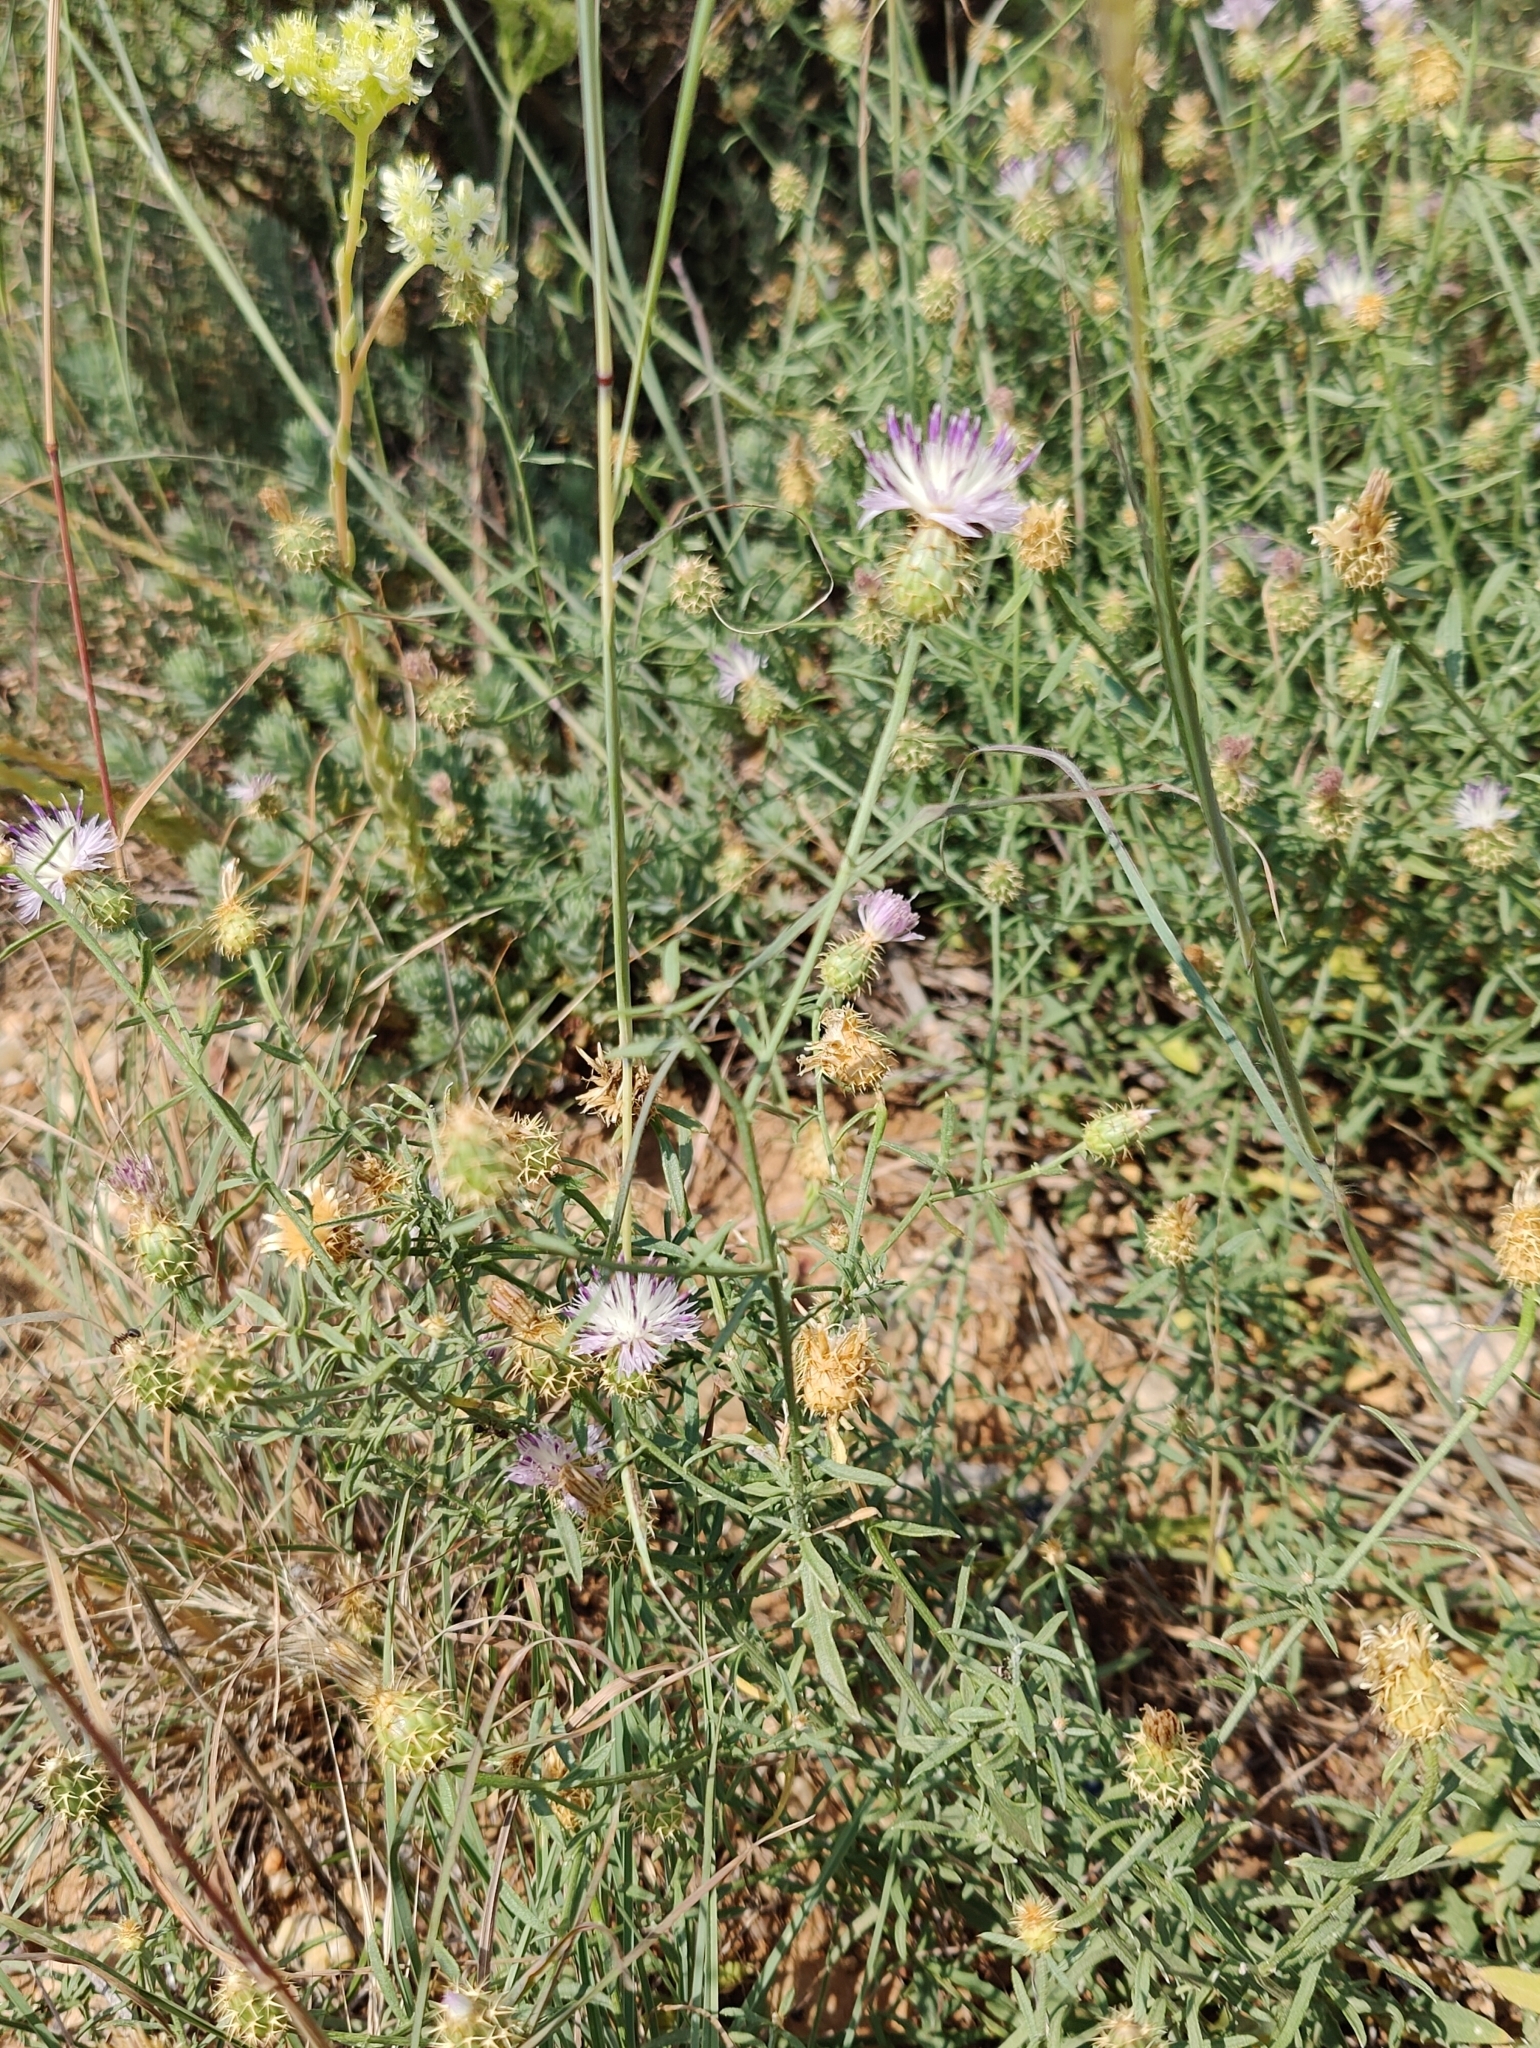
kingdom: Plantae
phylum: Tracheophyta
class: Magnoliopsida
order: Asterales
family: Asteraceae
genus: Centaurea
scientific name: Centaurea aspera
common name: Rough star-thistle
